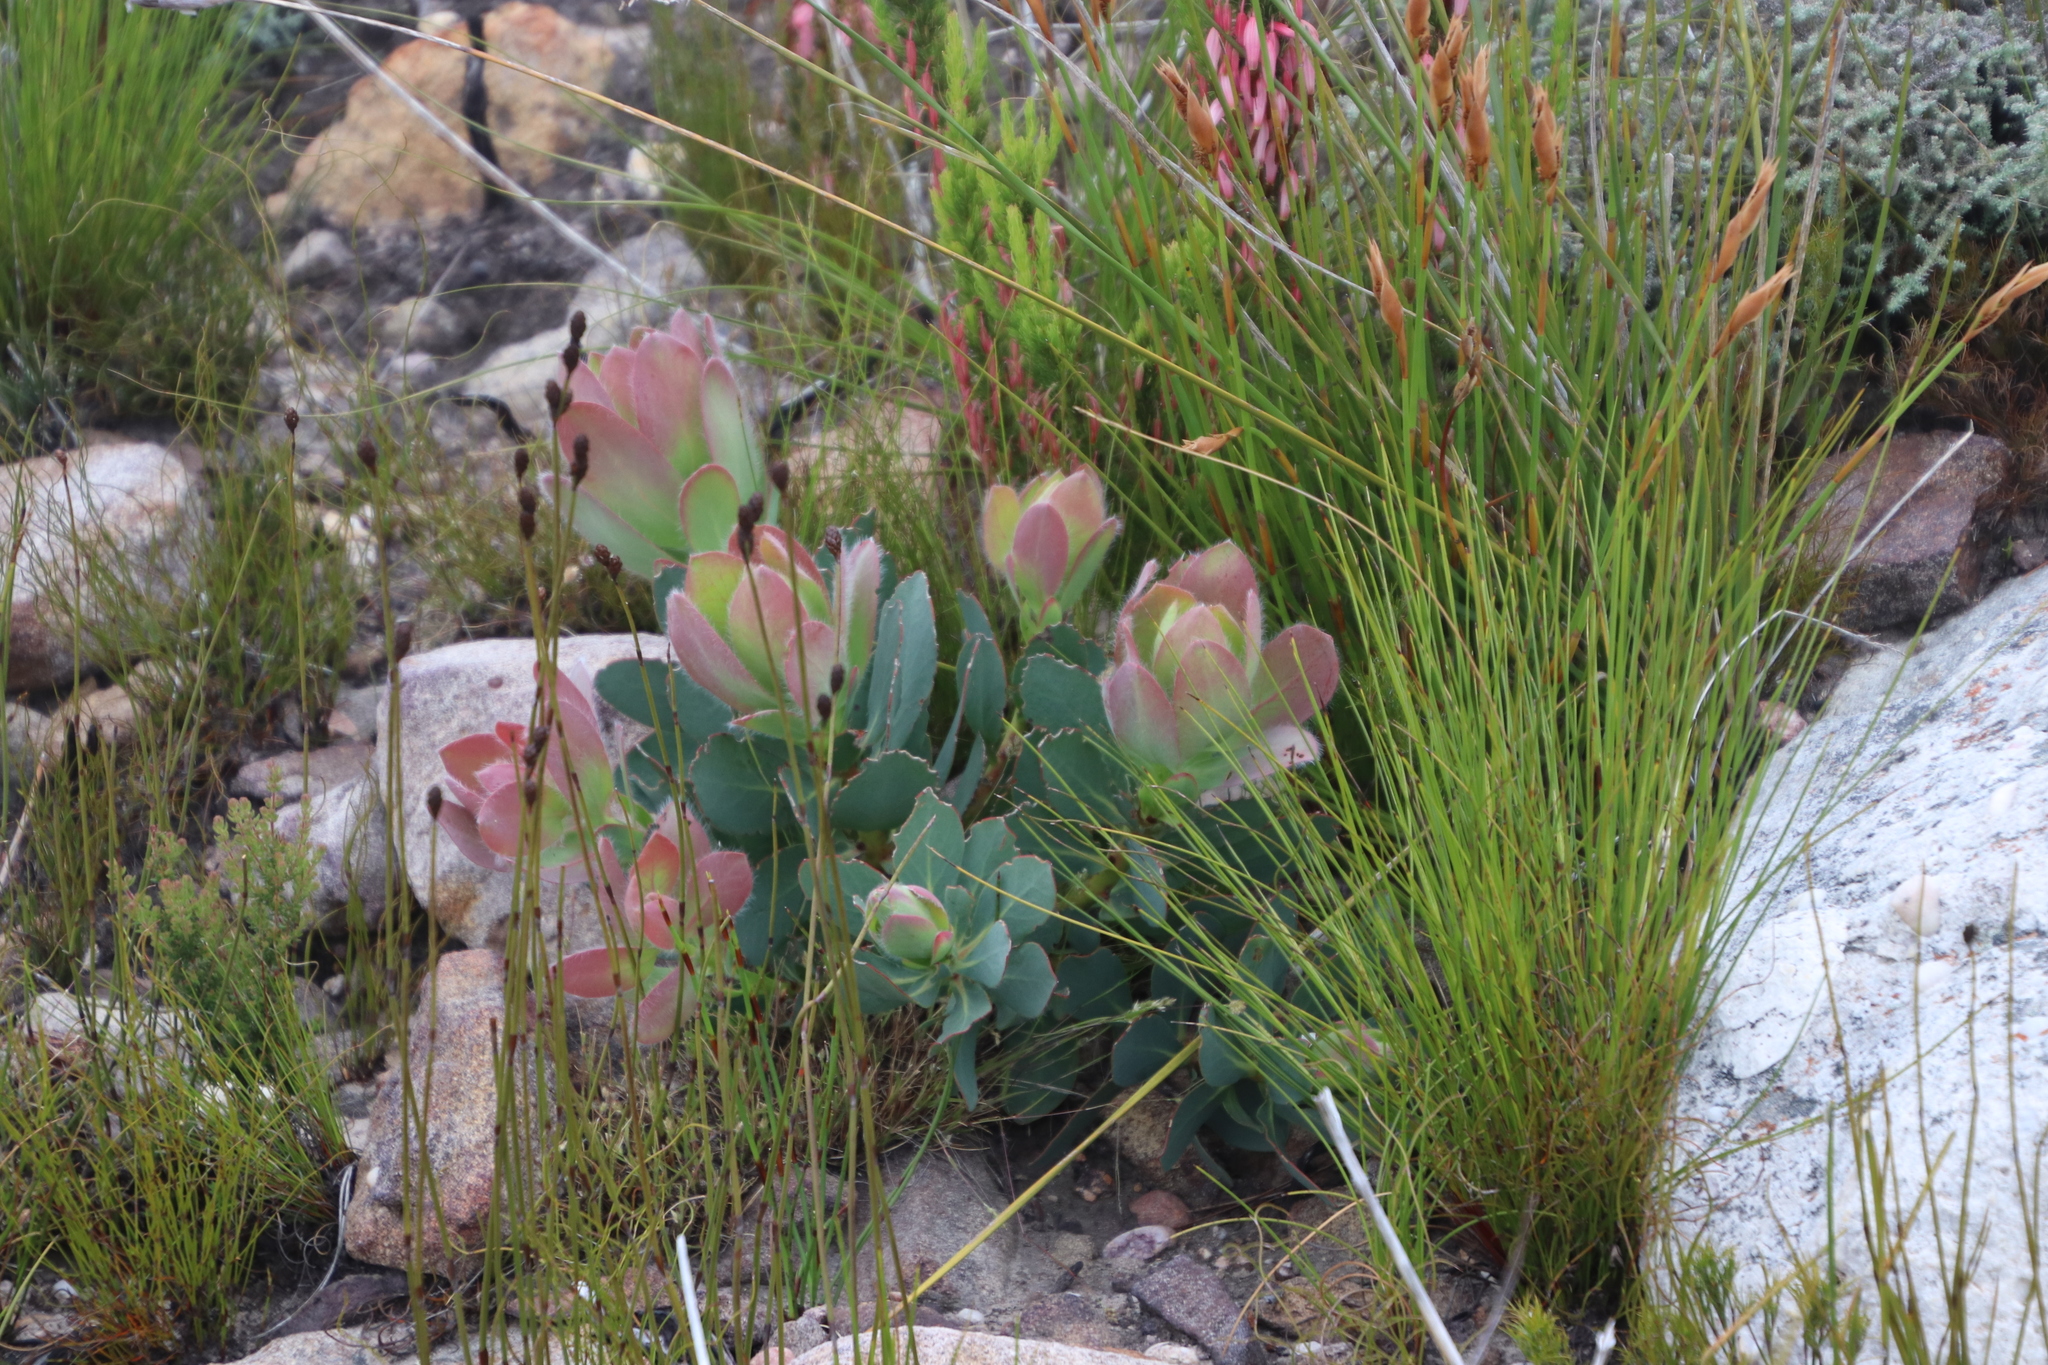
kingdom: Plantae
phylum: Tracheophyta
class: Magnoliopsida
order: Proteales
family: Proteaceae
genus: Protea
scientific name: Protea grandiceps
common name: Red sugarbush
